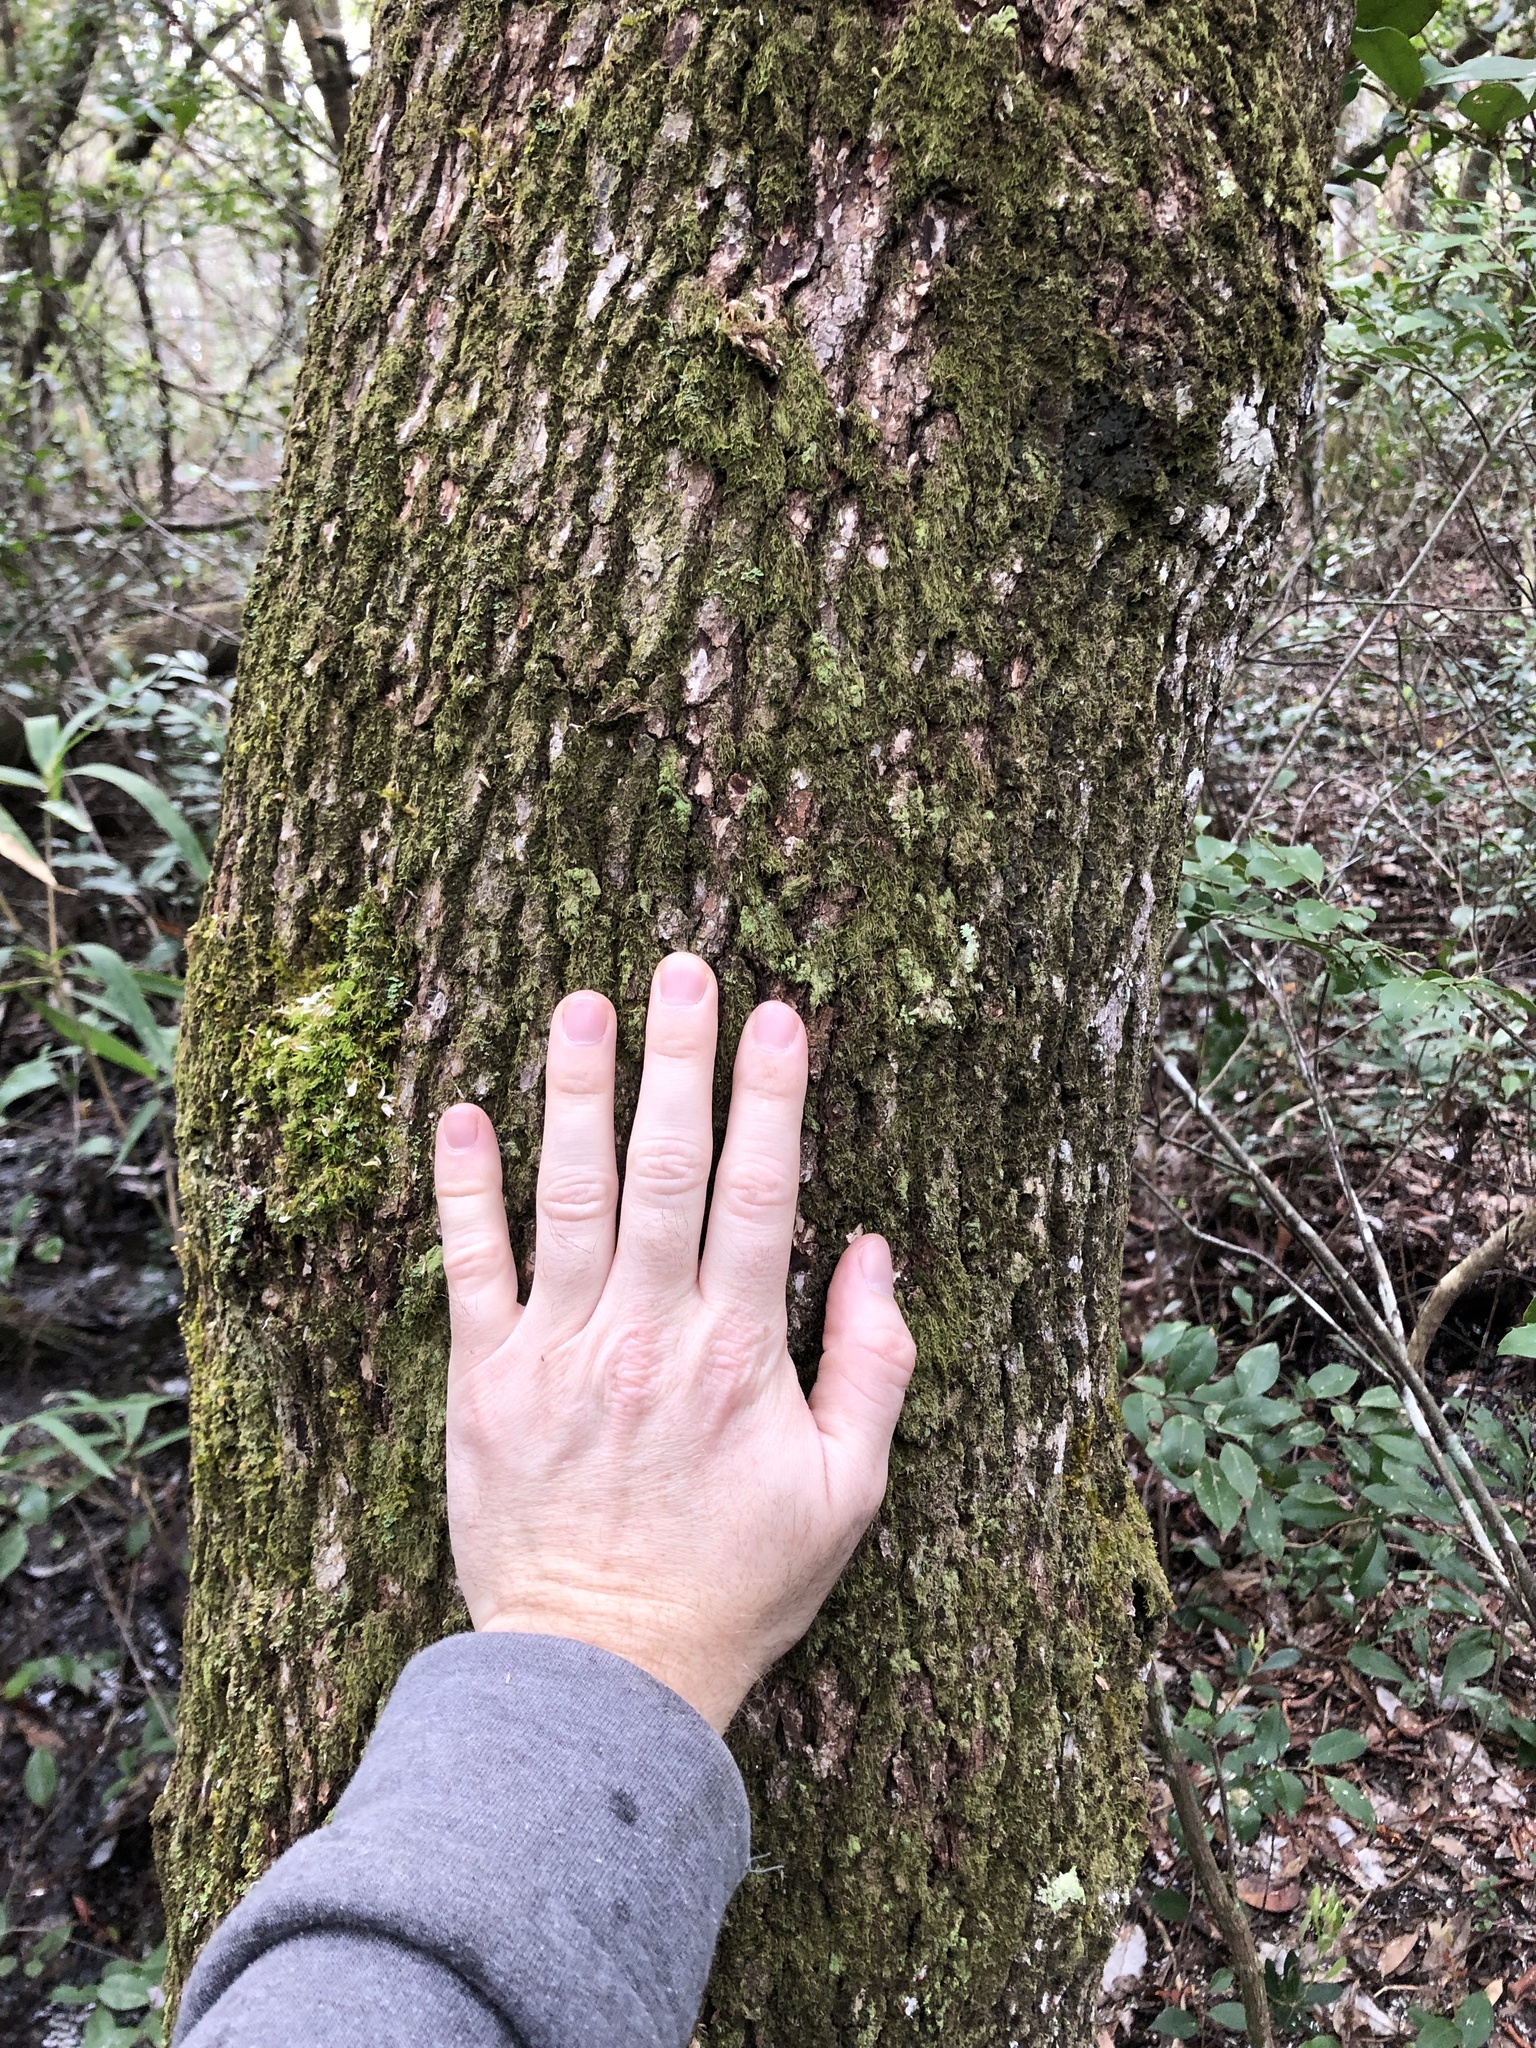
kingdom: Plantae
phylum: Tracheophyta
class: Magnoliopsida
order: Ericales
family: Cyrillaceae
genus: Cliftonia
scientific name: Cliftonia monophylla
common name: Titi
